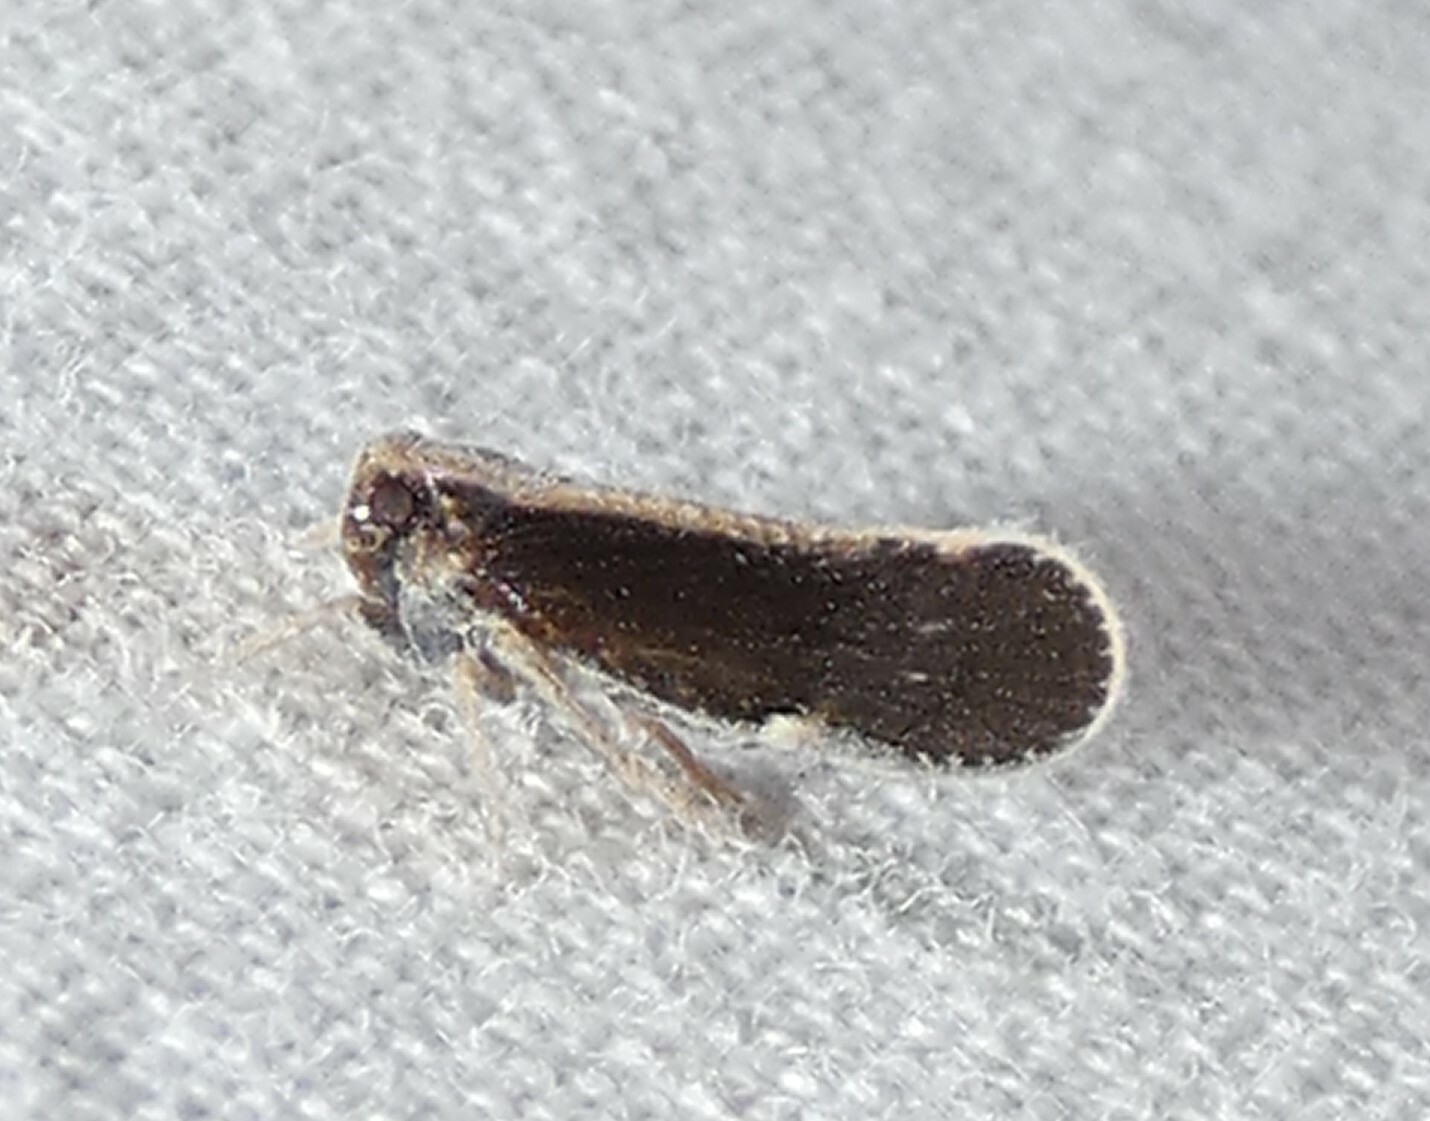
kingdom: Animalia
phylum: Arthropoda
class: Insecta
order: Hemiptera
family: Cixiidae
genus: Pintalia
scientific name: Pintalia delicata
